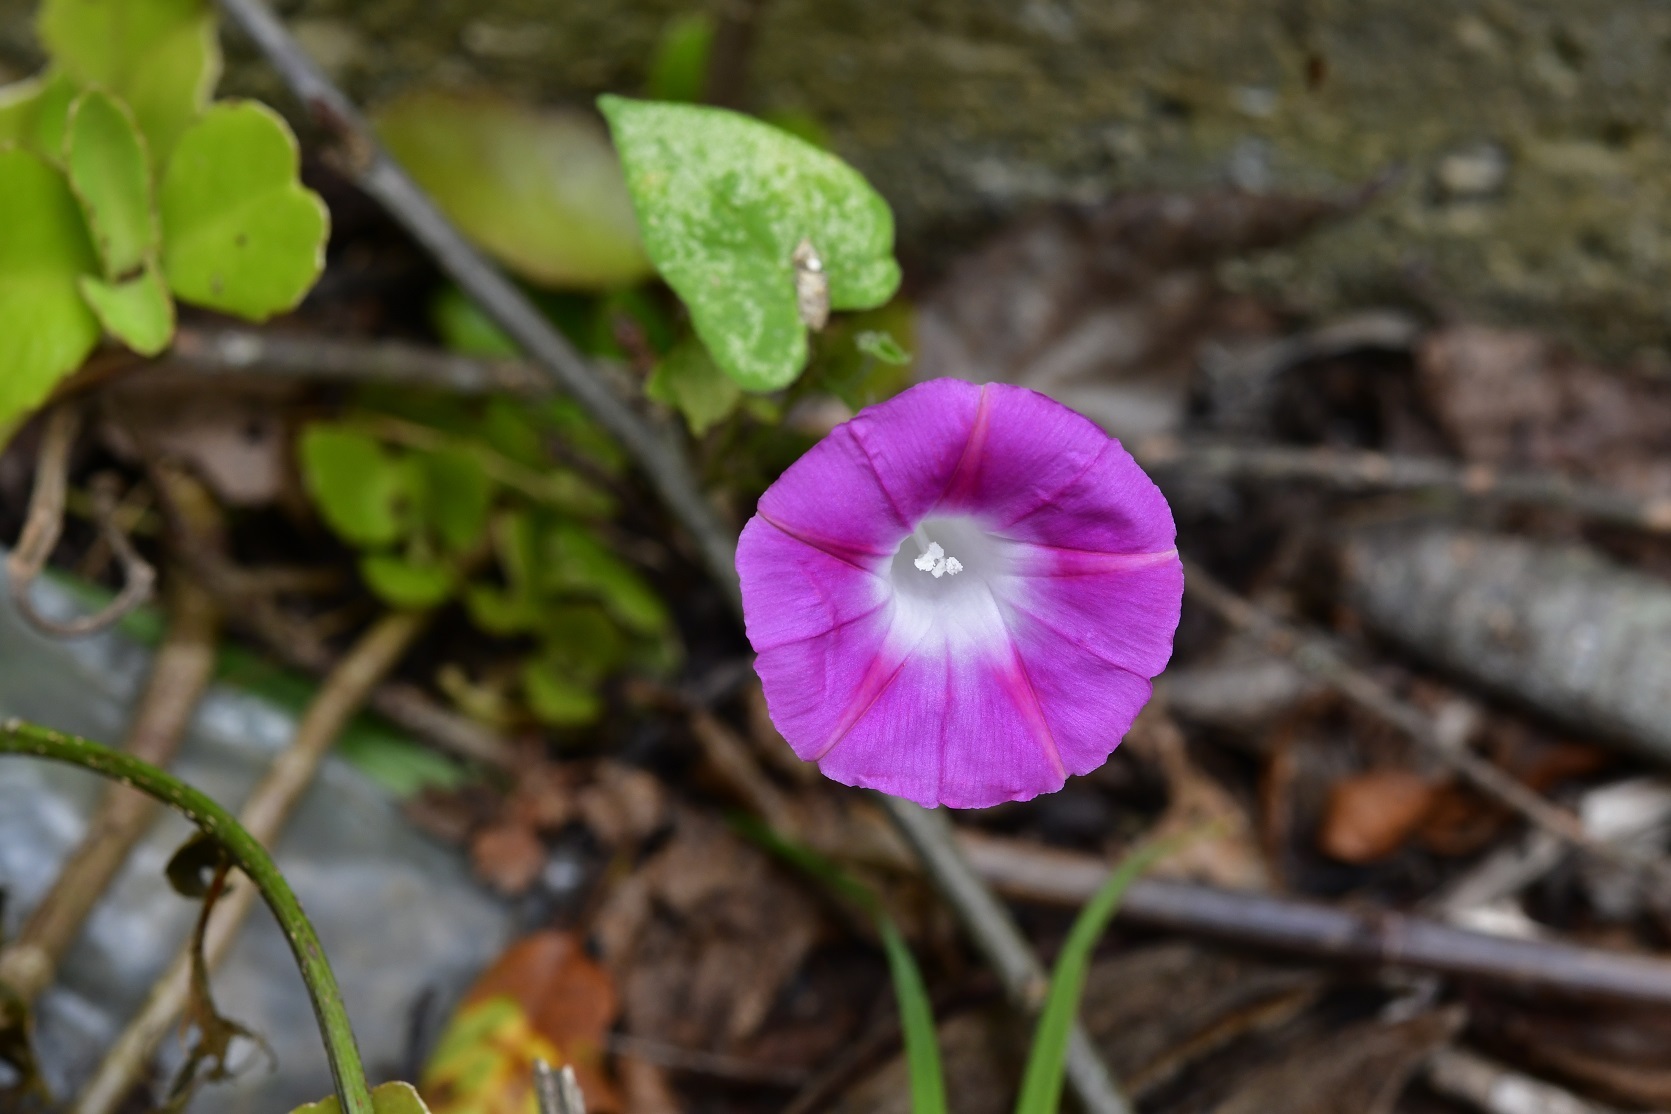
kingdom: Plantae
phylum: Tracheophyta
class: Magnoliopsida
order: Solanales
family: Convolvulaceae
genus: Ipomoea
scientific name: Ipomoea purpurea
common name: Common morning-glory
